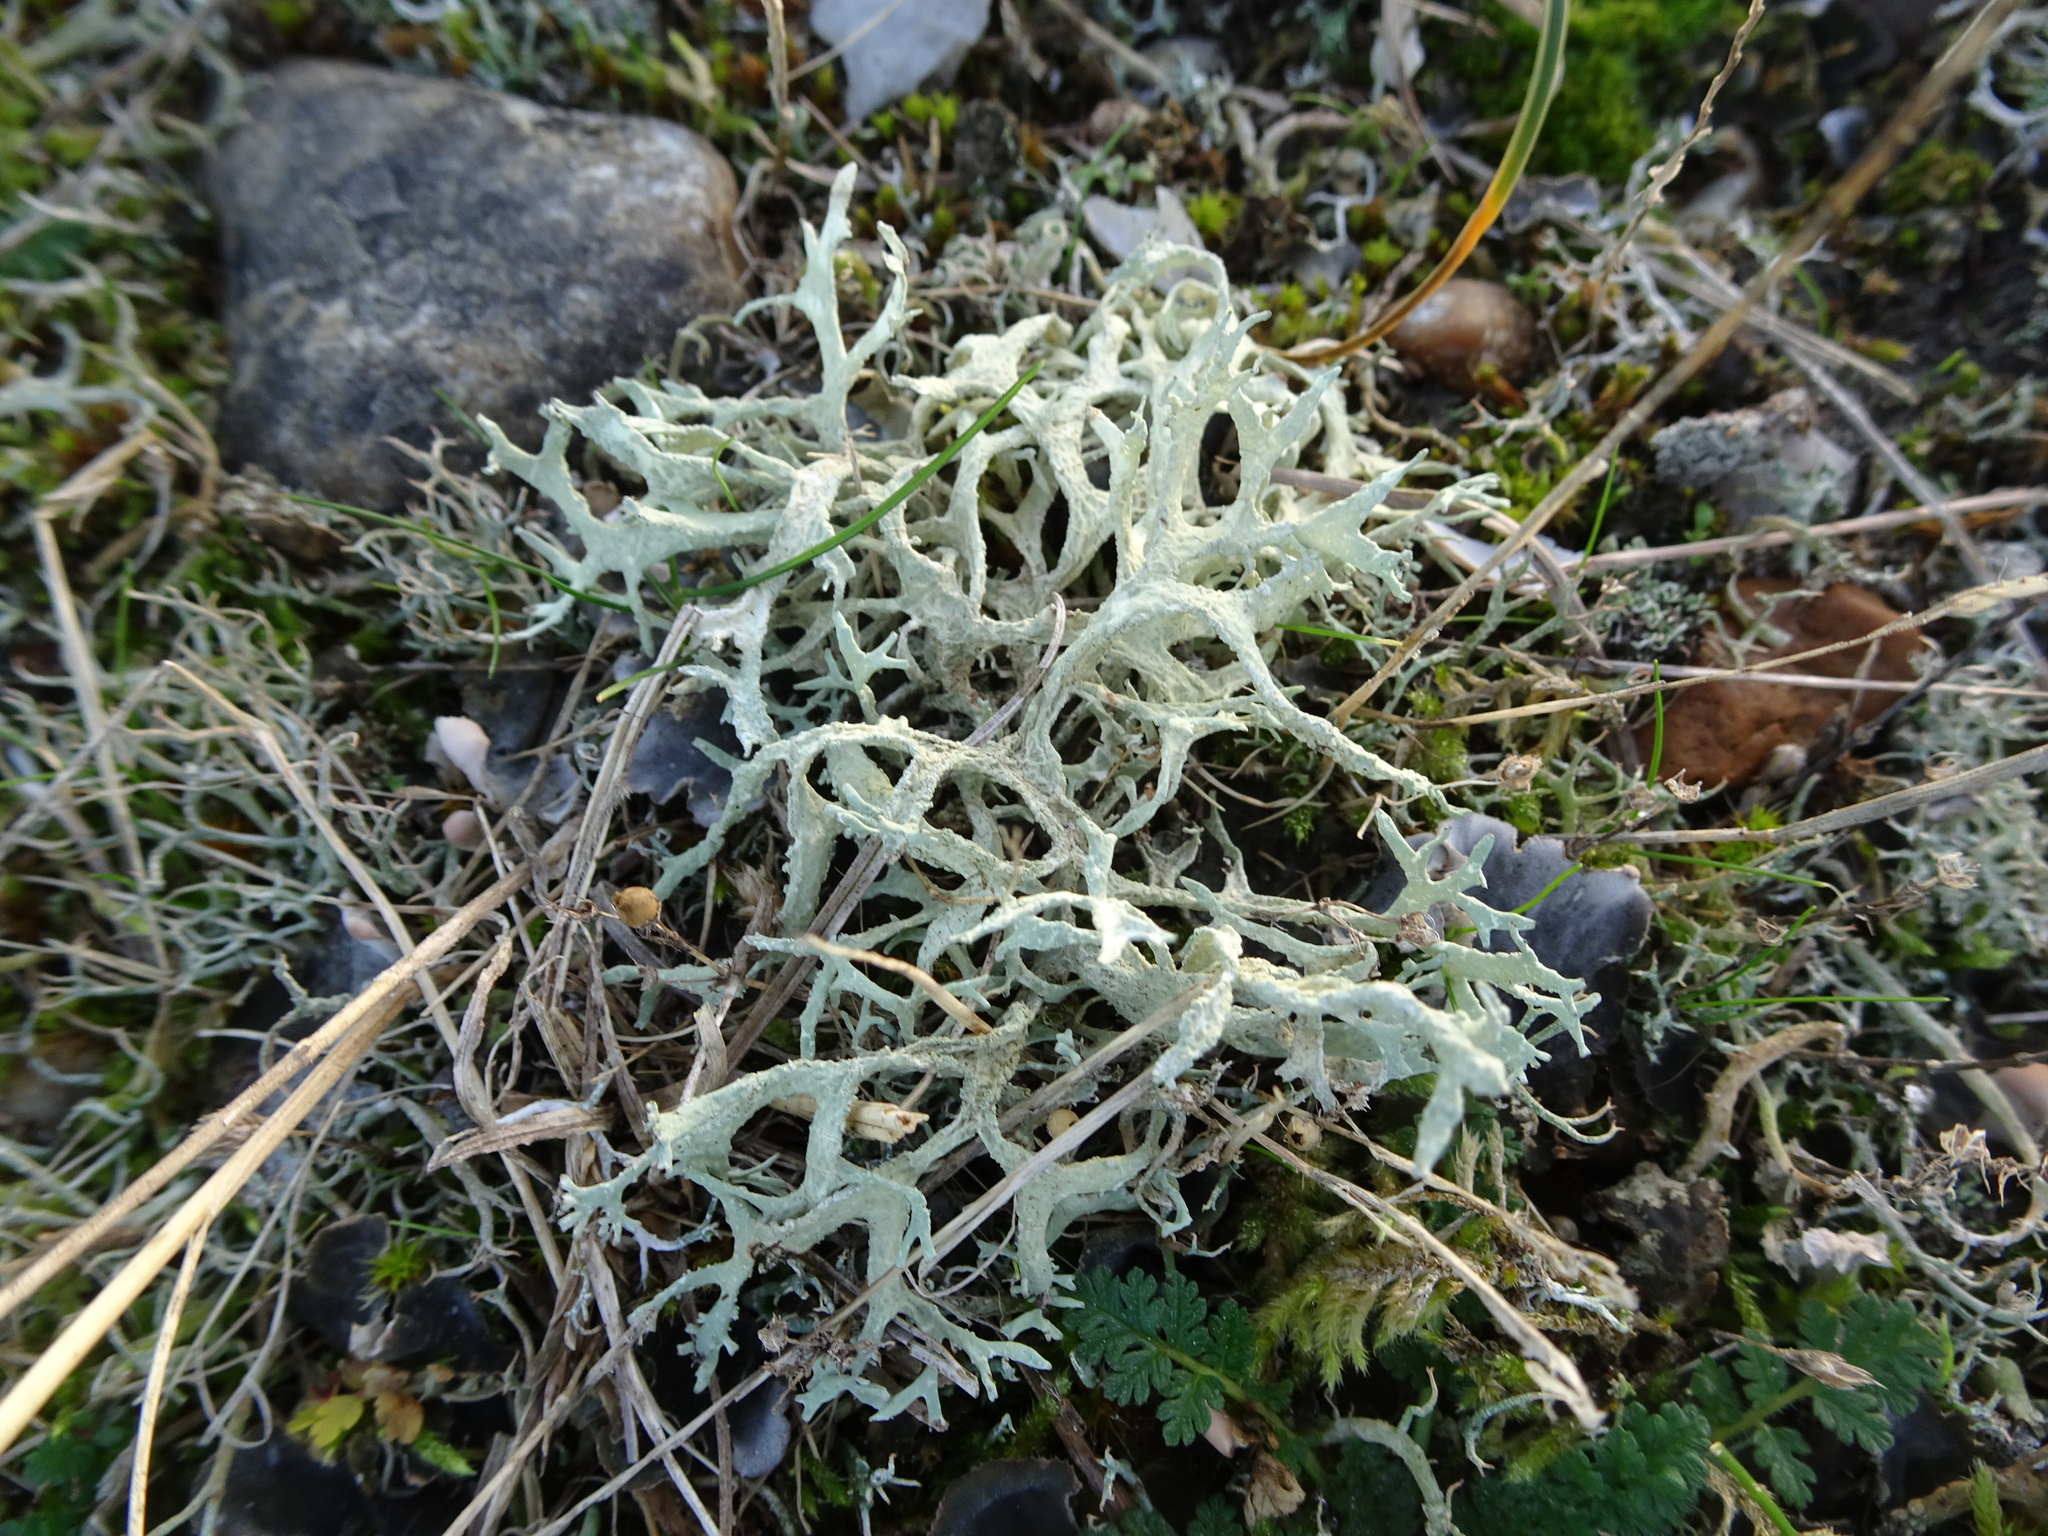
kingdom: Fungi
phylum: Ascomycota
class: Lecanoromycetes
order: Lecanorales
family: Parmeliaceae
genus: Evernia
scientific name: Evernia prunastri
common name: Oak moss
